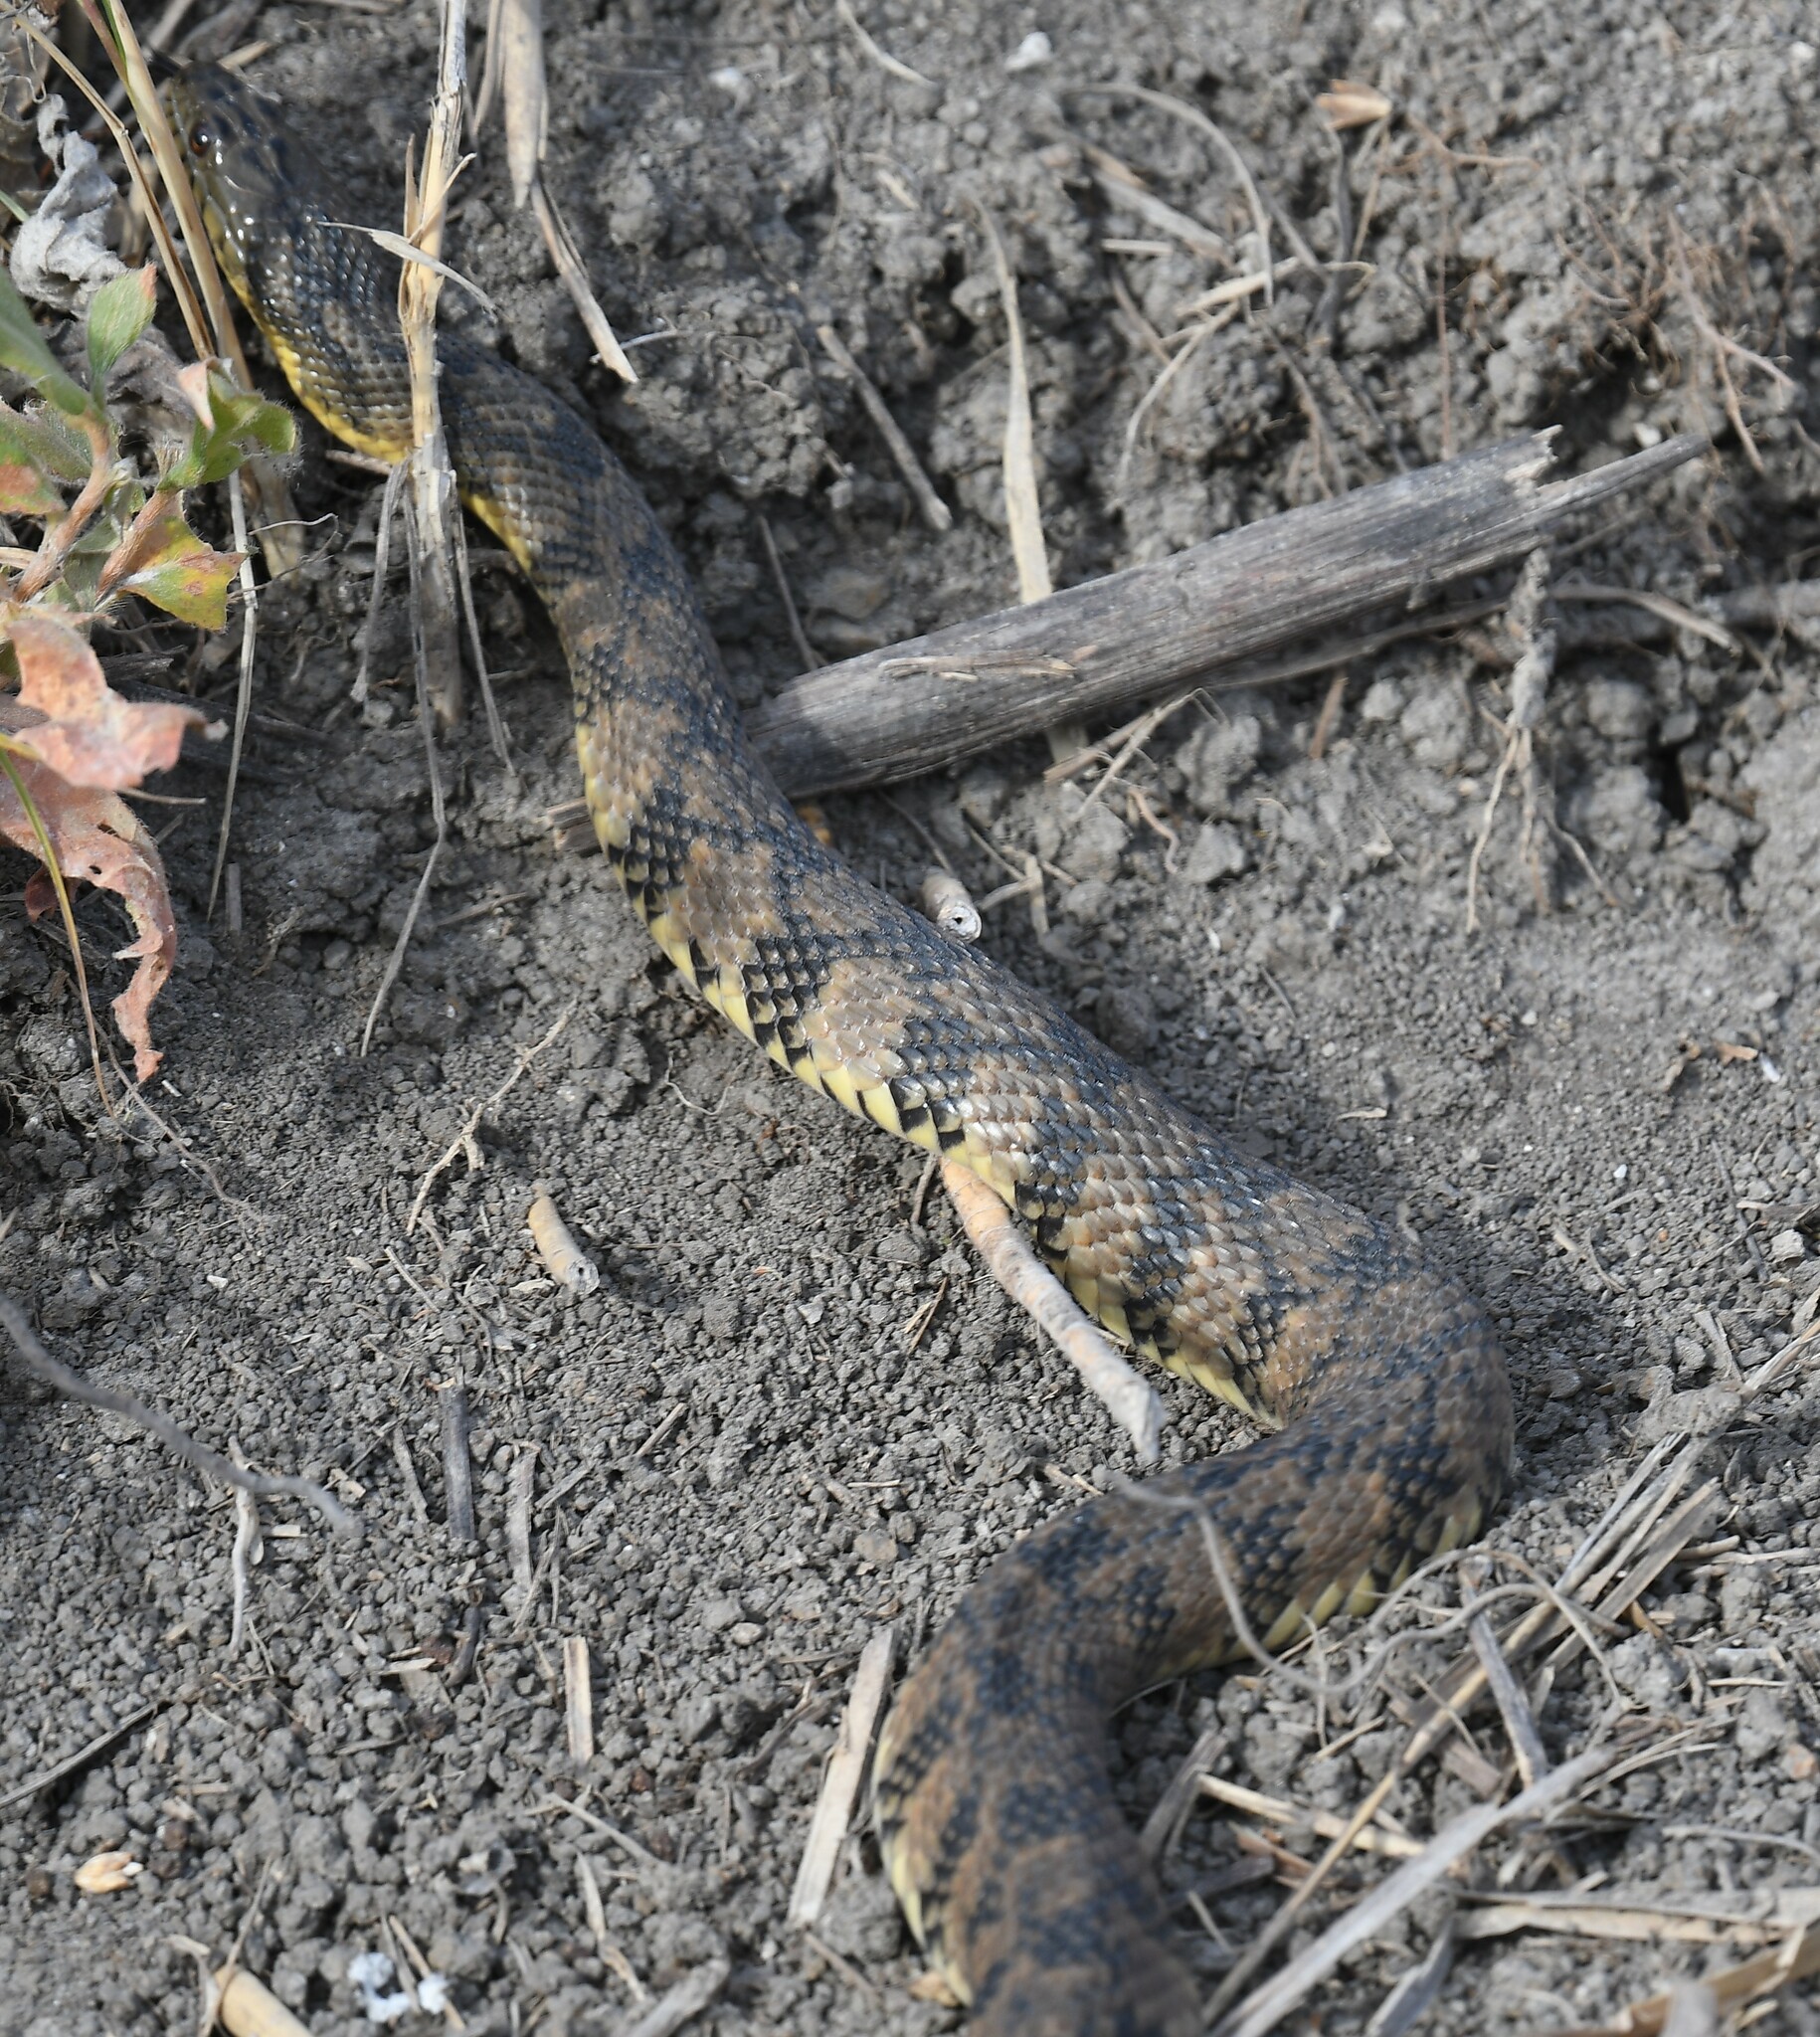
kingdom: Animalia
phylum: Chordata
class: Squamata
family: Colubridae
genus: Nerodia
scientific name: Nerodia rhombifer
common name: Diamondback water snake
